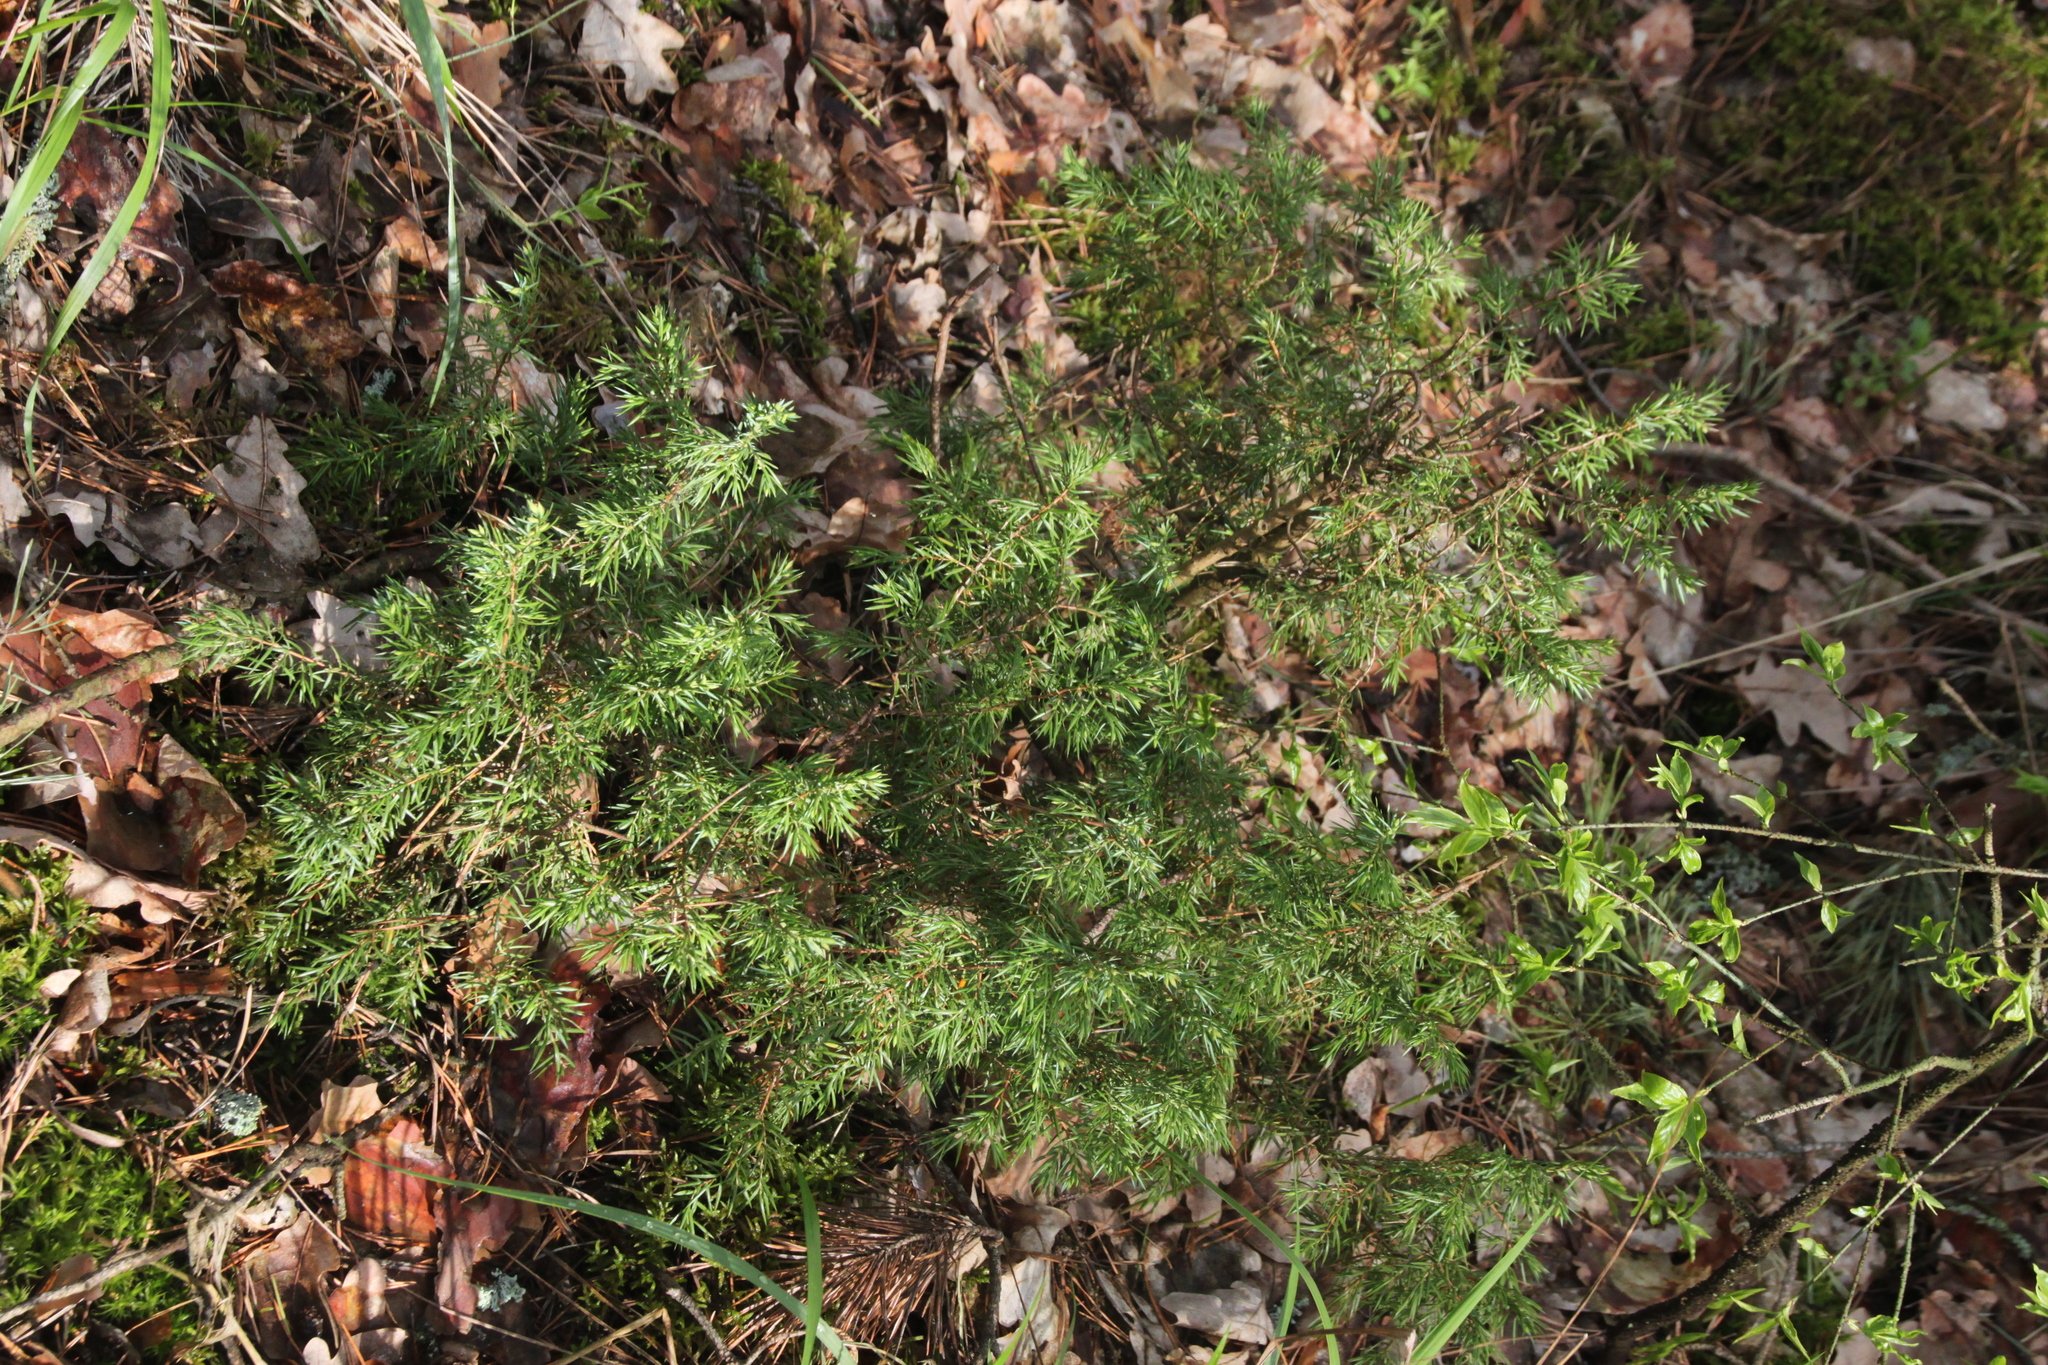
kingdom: Plantae
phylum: Tracheophyta
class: Pinopsida
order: Pinales
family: Cupressaceae
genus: Juniperus
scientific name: Juniperus communis
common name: Common juniper
